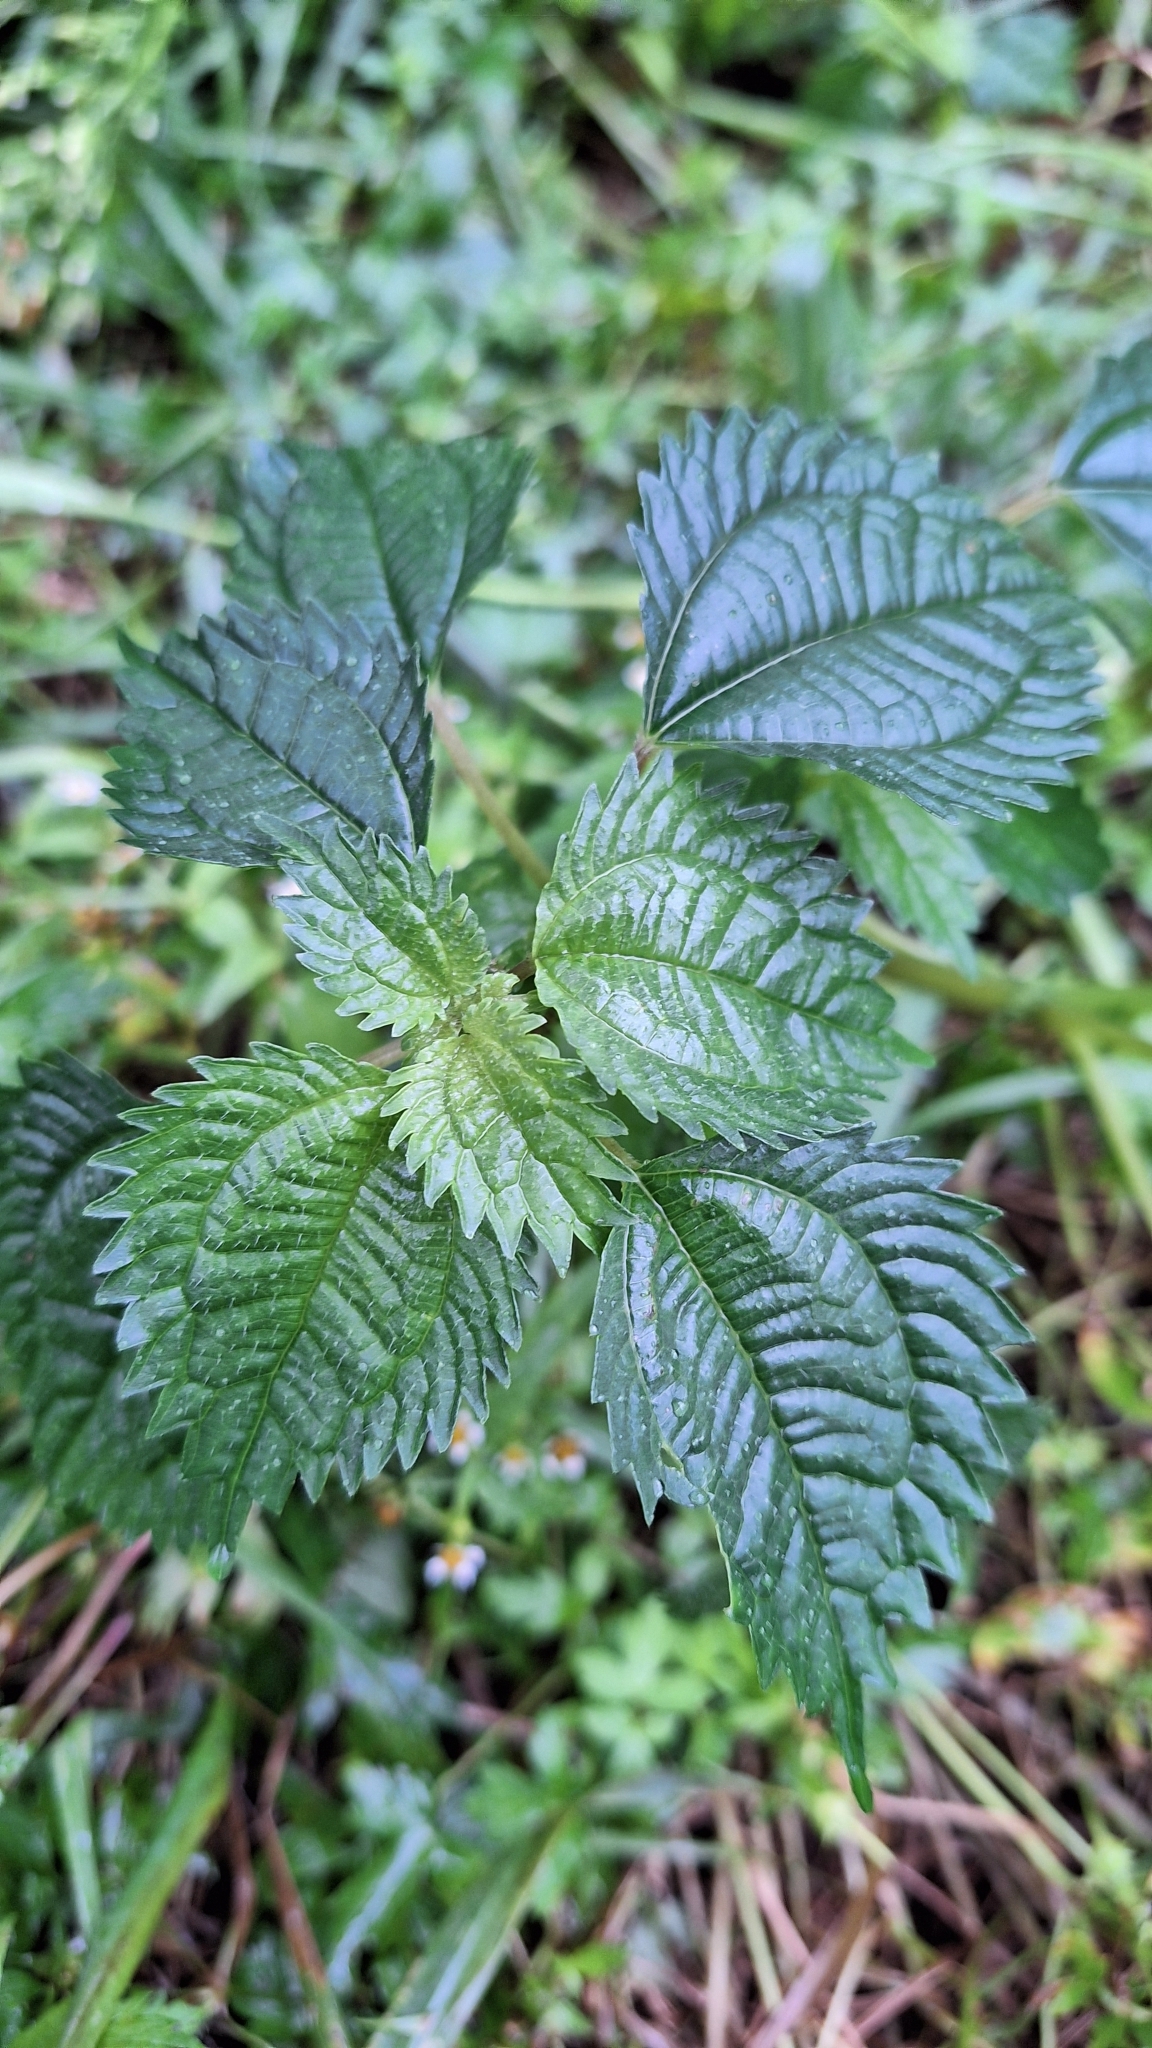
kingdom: Plantae
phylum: Tracheophyta
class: Magnoliopsida
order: Rosales
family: Urticaceae
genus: Pilea
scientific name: Pilea pumila
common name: Clearweed
